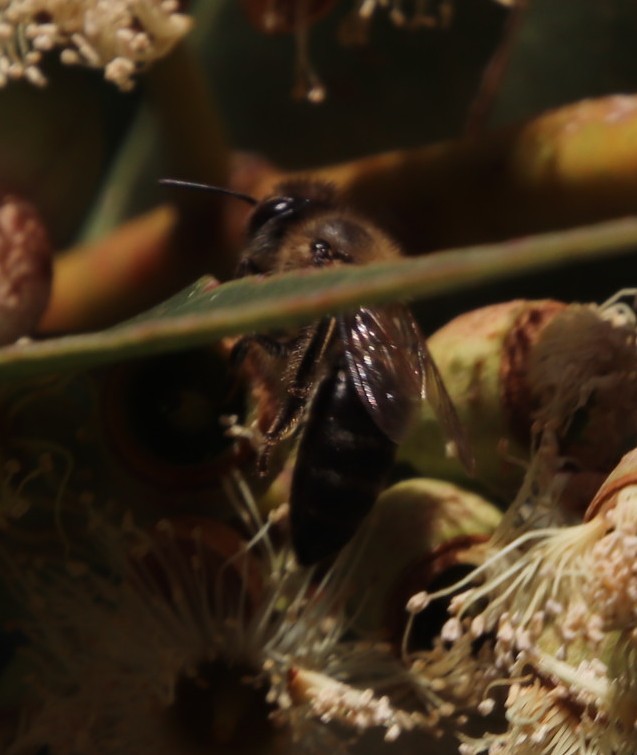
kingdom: Animalia
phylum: Arthropoda
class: Insecta
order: Hymenoptera
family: Apidae
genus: Apis
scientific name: Apis mellifera
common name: Honey bee
